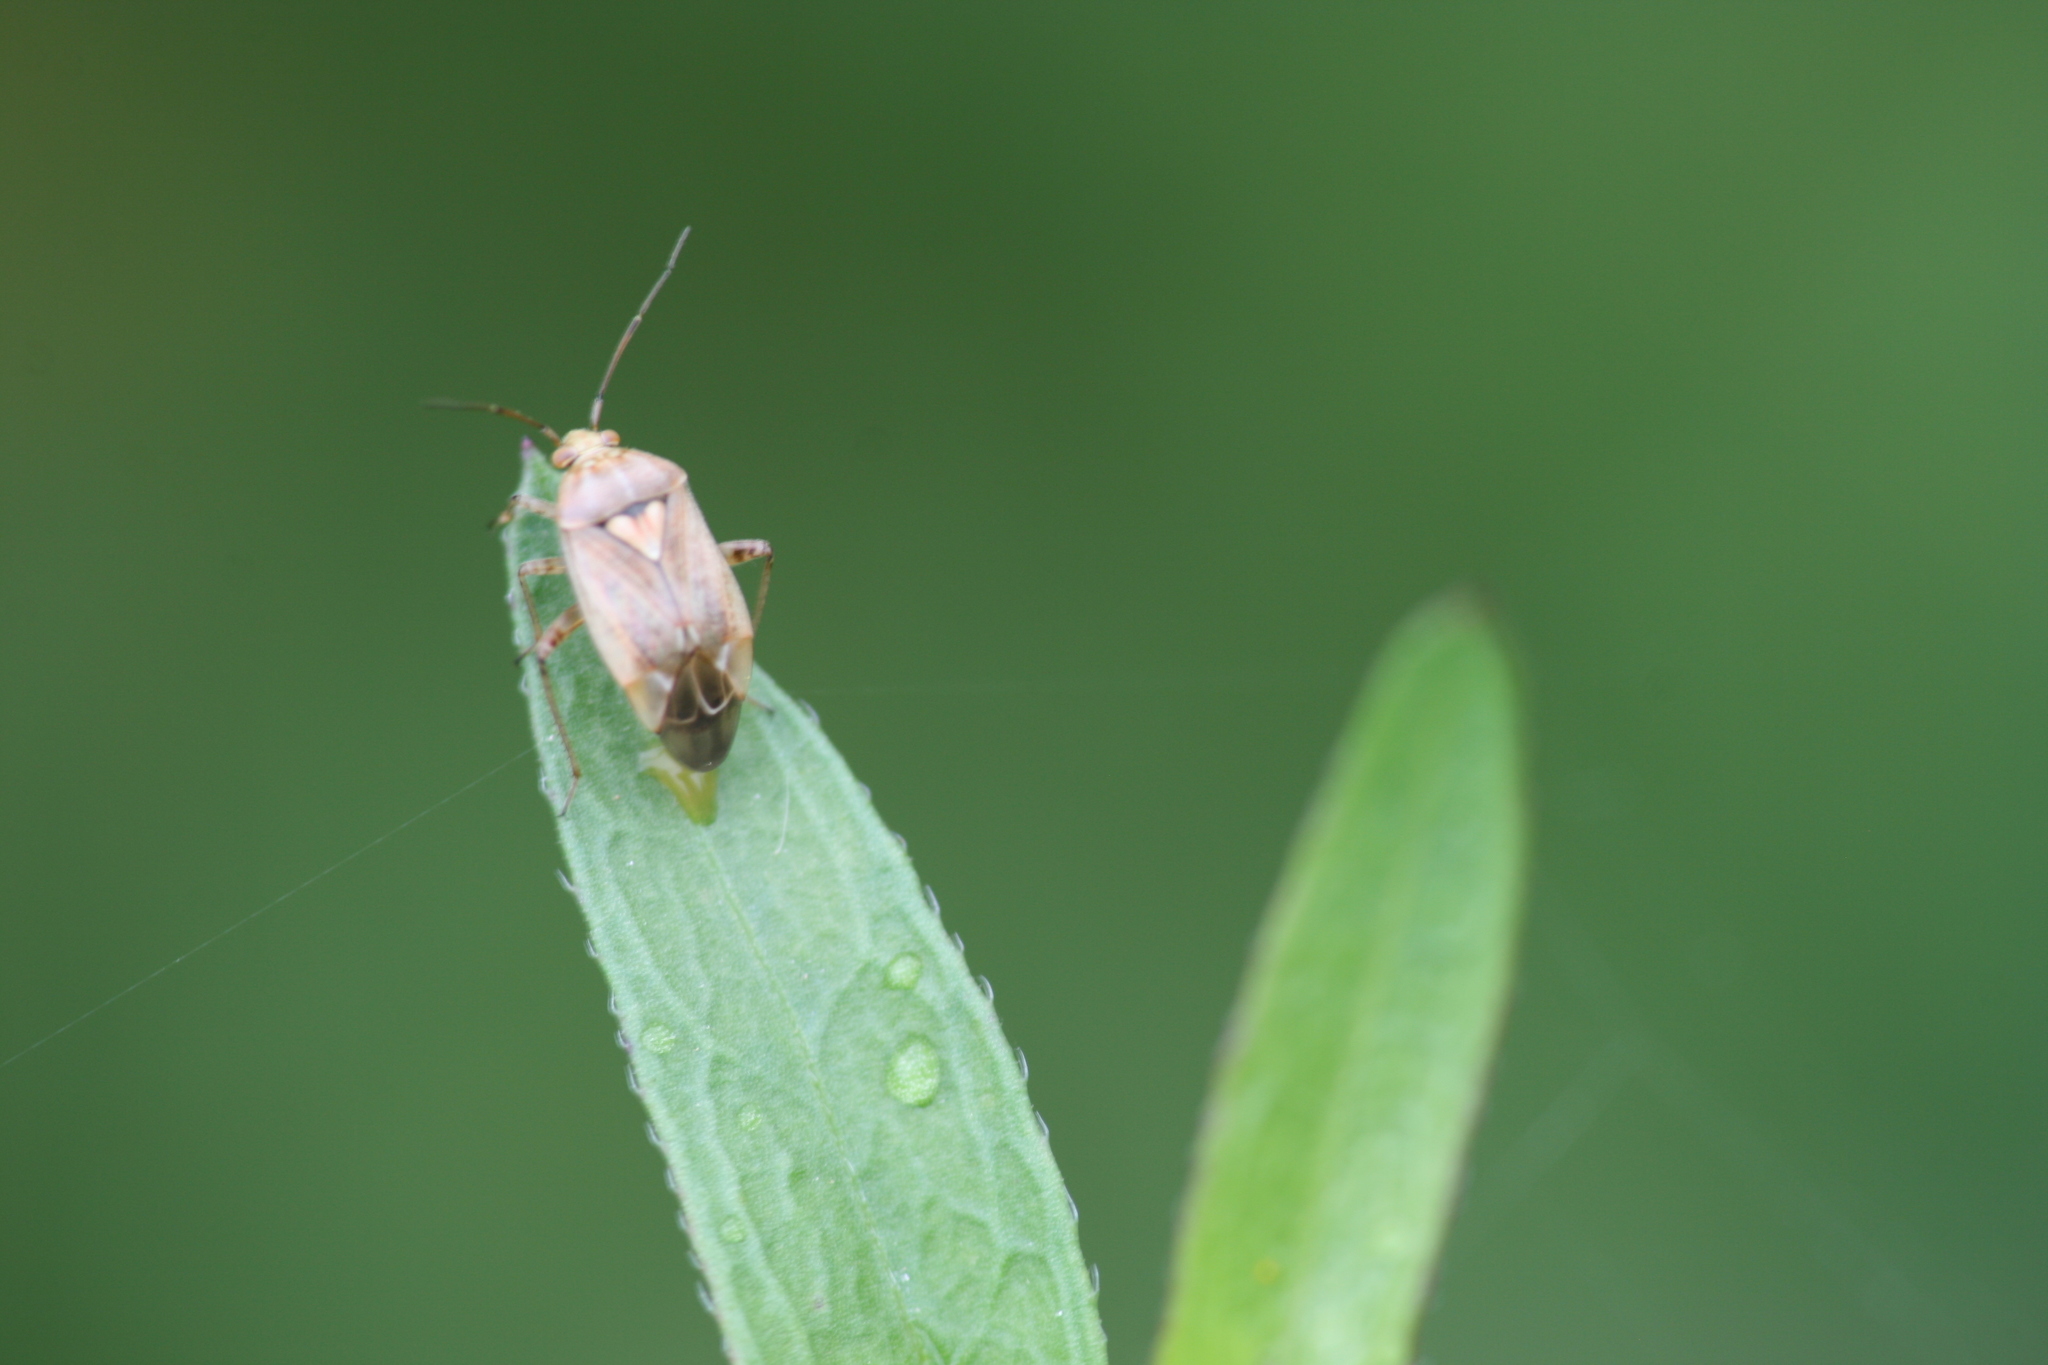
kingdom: Animalia
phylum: Arthropoda
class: Insecta
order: Hemiptera
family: Miridae
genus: Lygus
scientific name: Lygus rugulipennis
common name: European tarnished plant bug
